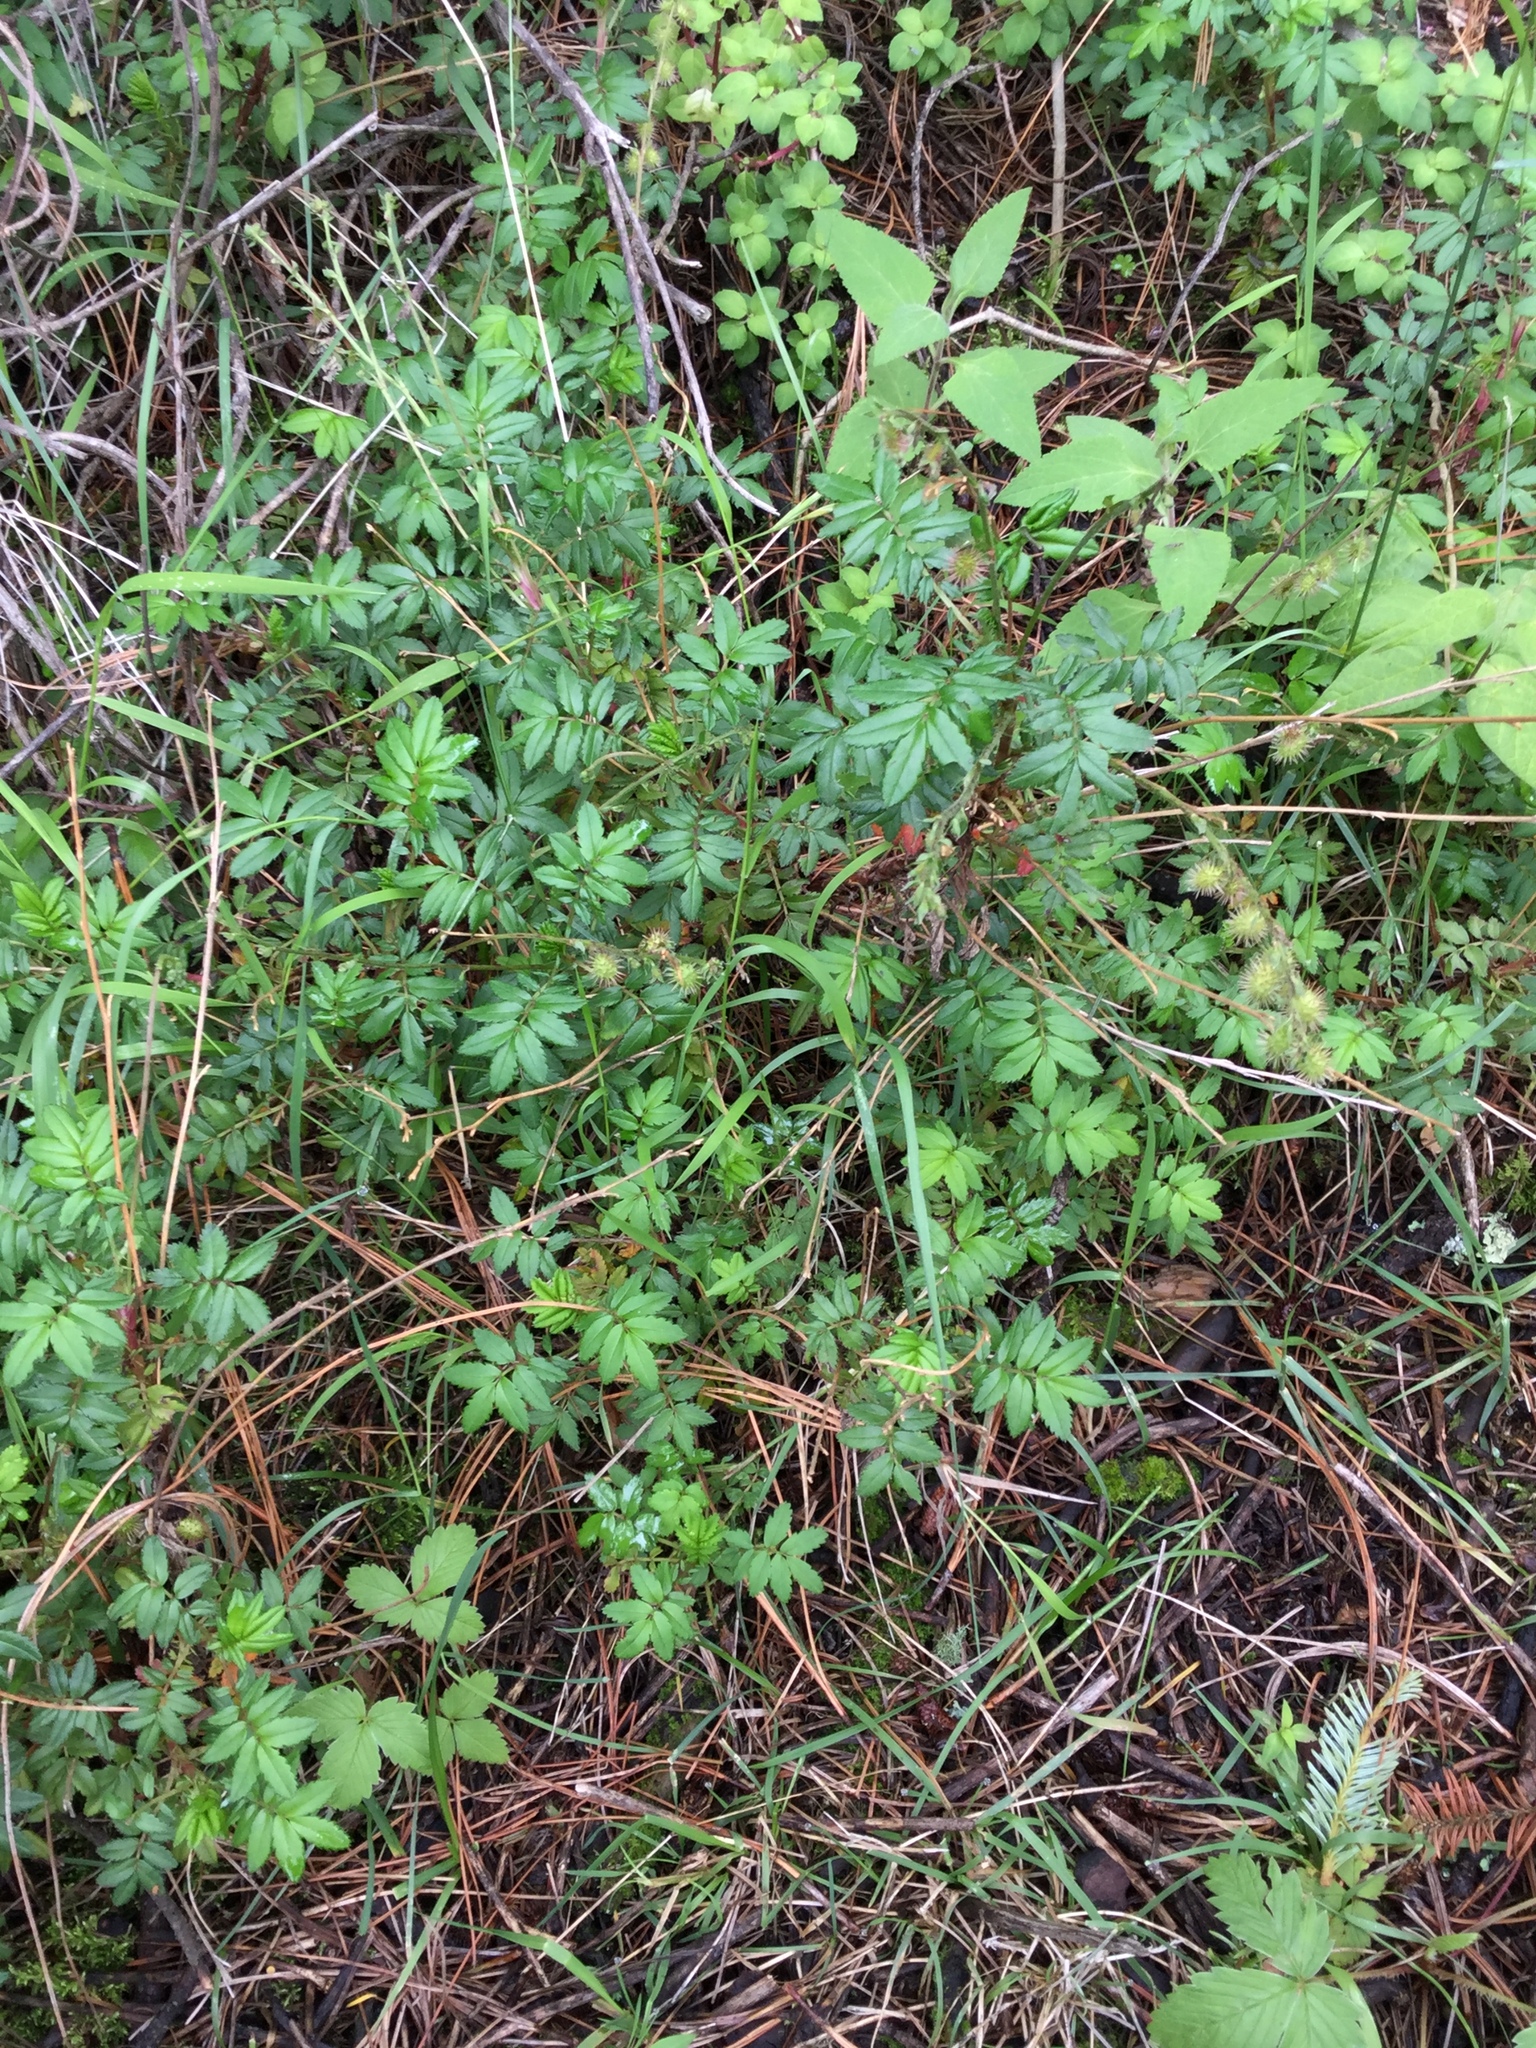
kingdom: Plantae
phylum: Tracheophyta
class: Magnoliopsida
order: Rosales
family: Rosaceae
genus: Acaena
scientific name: Acaena elongata
